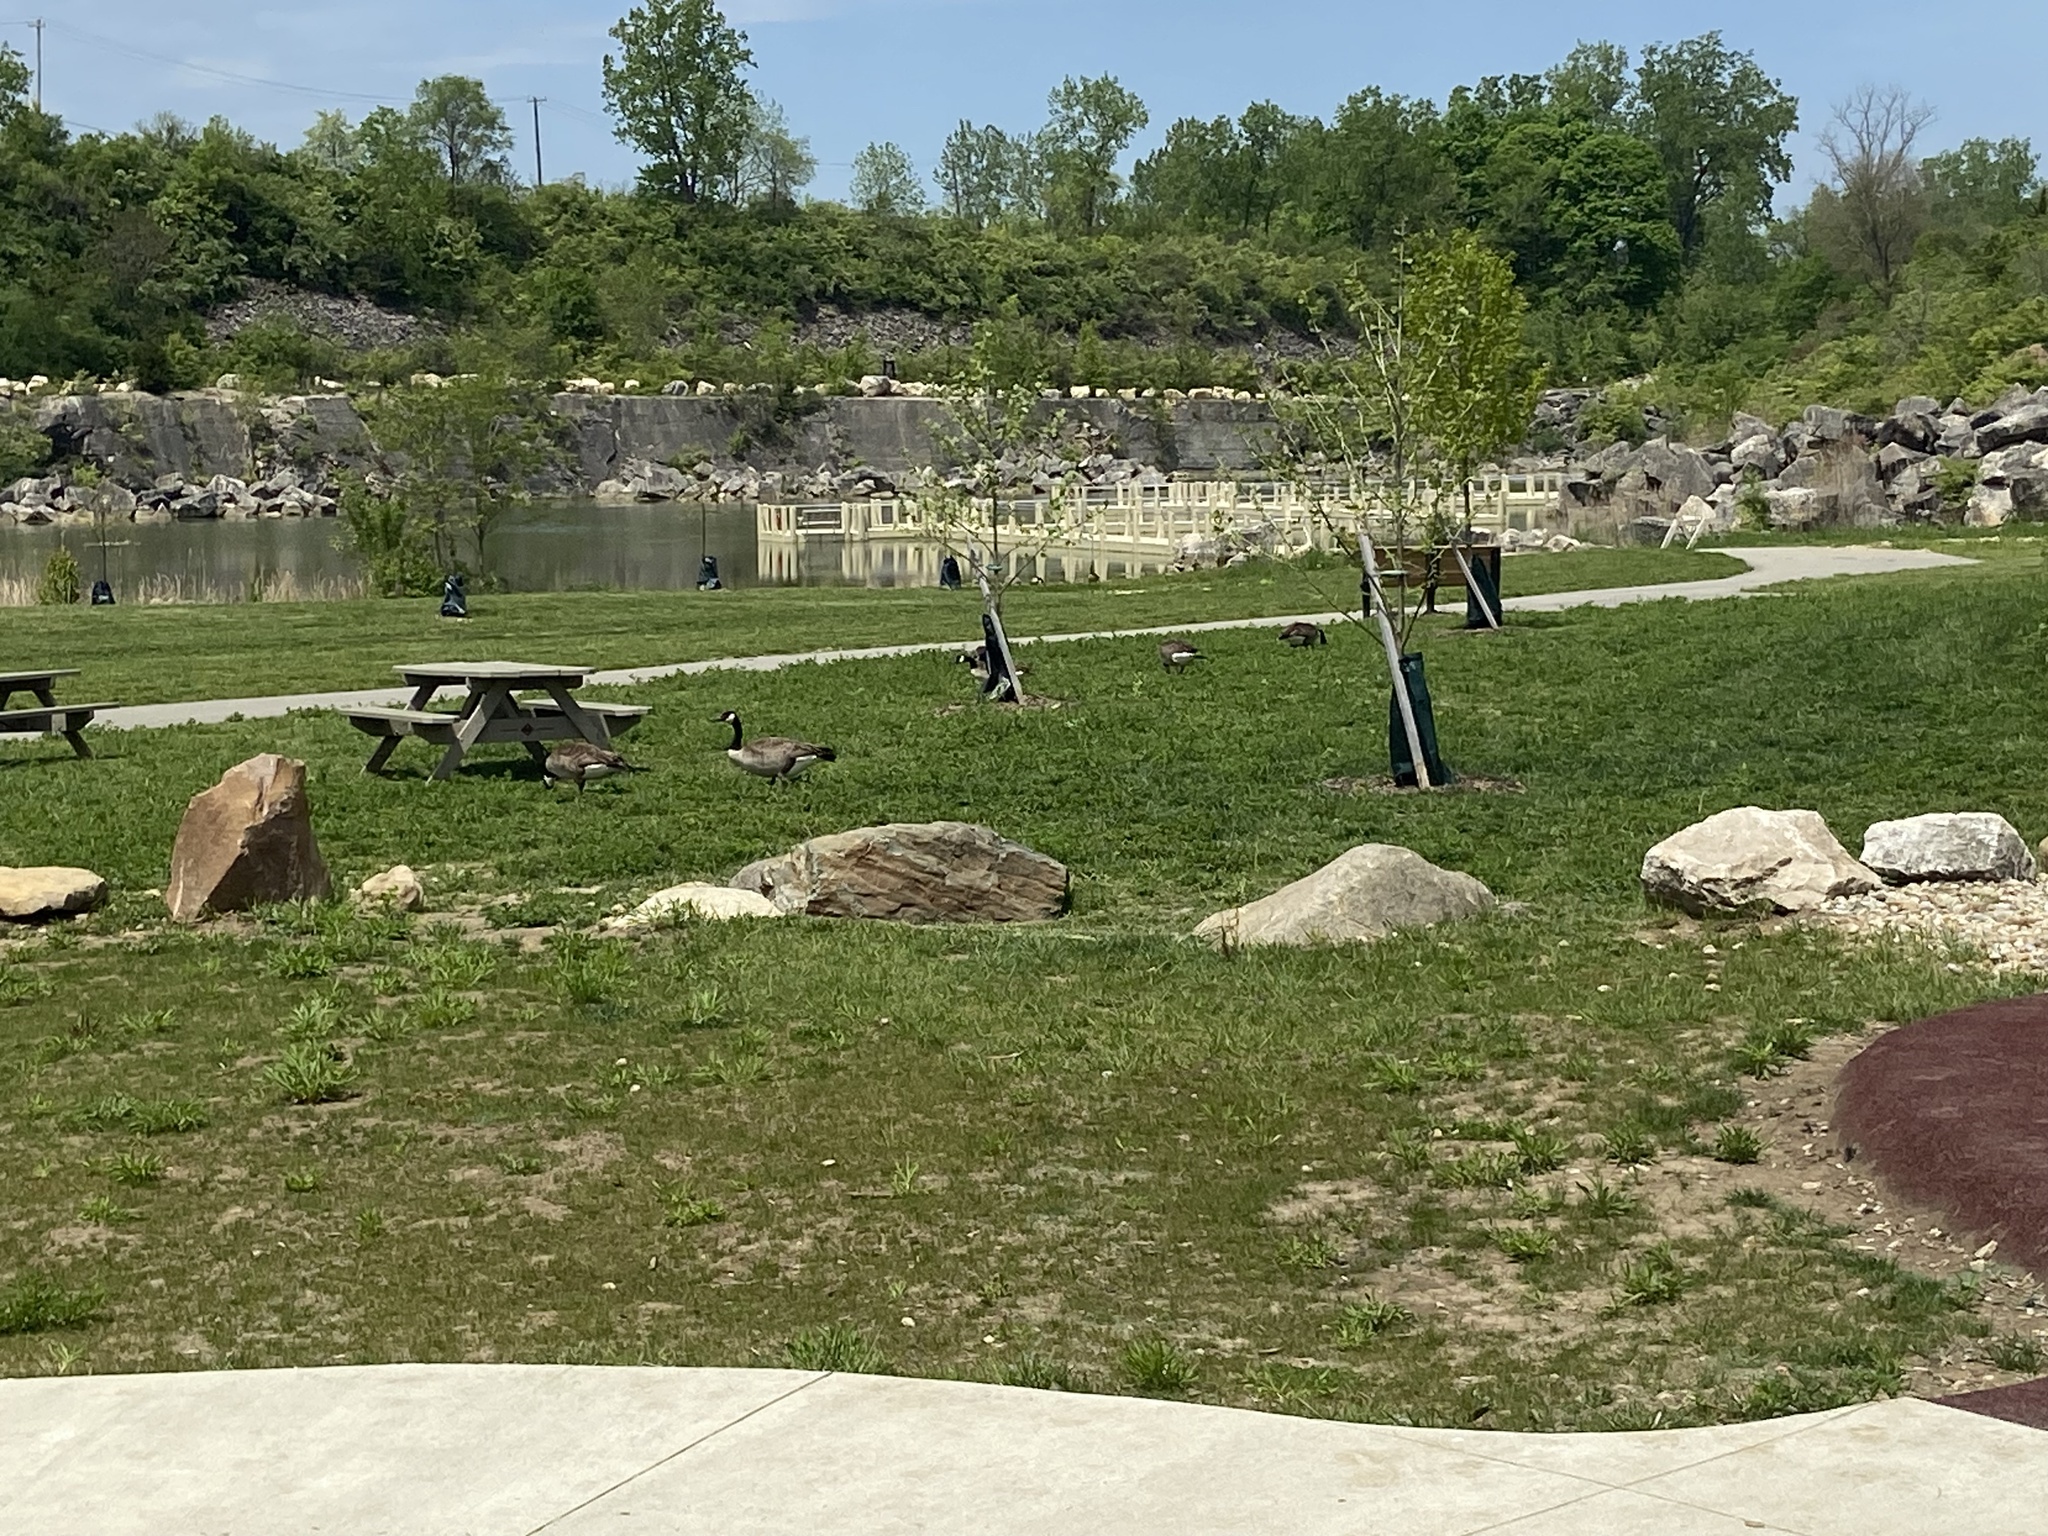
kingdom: Animalia
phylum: Chordata
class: Aves
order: Anseriformes
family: Anatidae
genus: Branta
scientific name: Branta canadensis
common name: Canada goose
